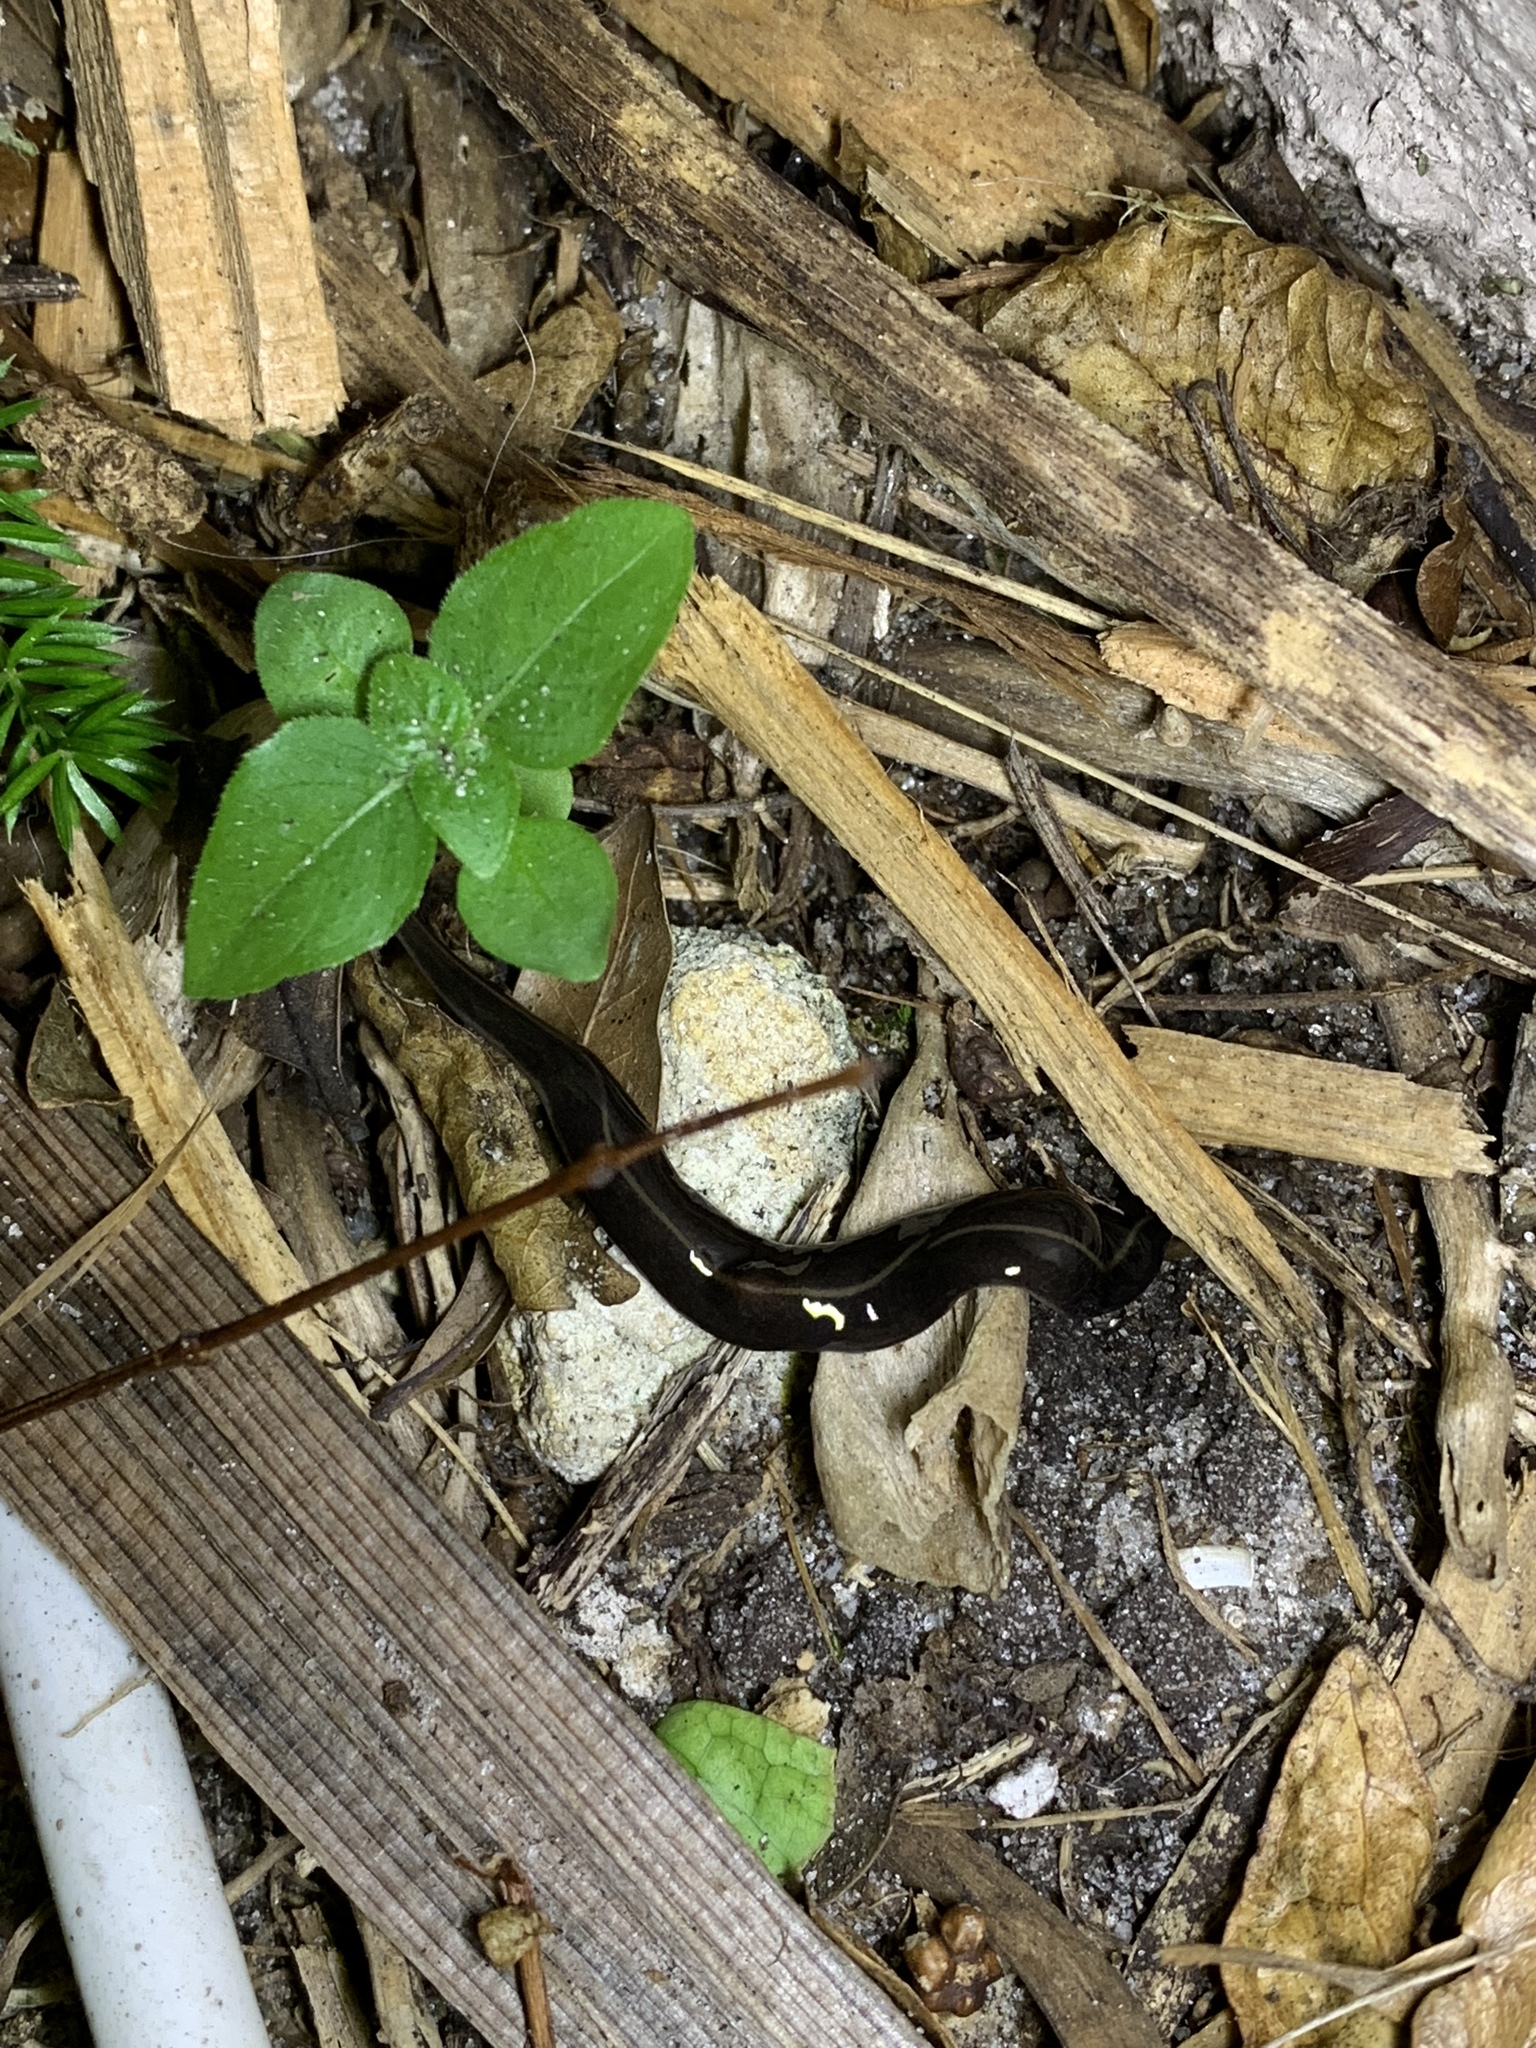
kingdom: Animalia
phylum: Platyhelminthes
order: Tricladida
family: Geoplanidae
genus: Platydemus
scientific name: Platydemus manokwari
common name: New guinea flatworm
